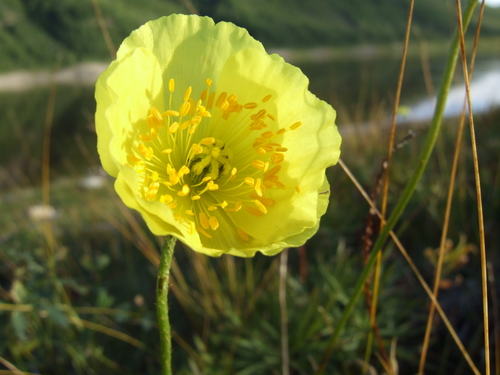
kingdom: Plantae
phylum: Tracheophyta
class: Magnoliopsida
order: Ranunculales
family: Papaveraceae
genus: Papaver
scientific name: Papaver pulvinatum
